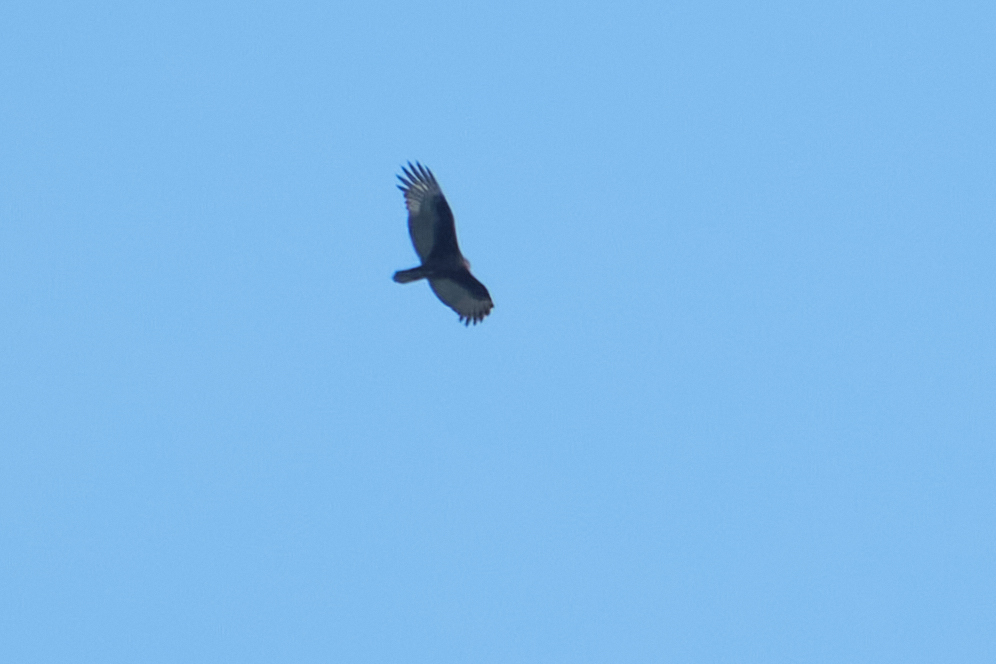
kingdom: Animalia
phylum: Chordata
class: Aves
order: Accipitriformes
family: Cathartidae
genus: Cathartes
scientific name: Cathartes aura
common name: Turkey vulture
